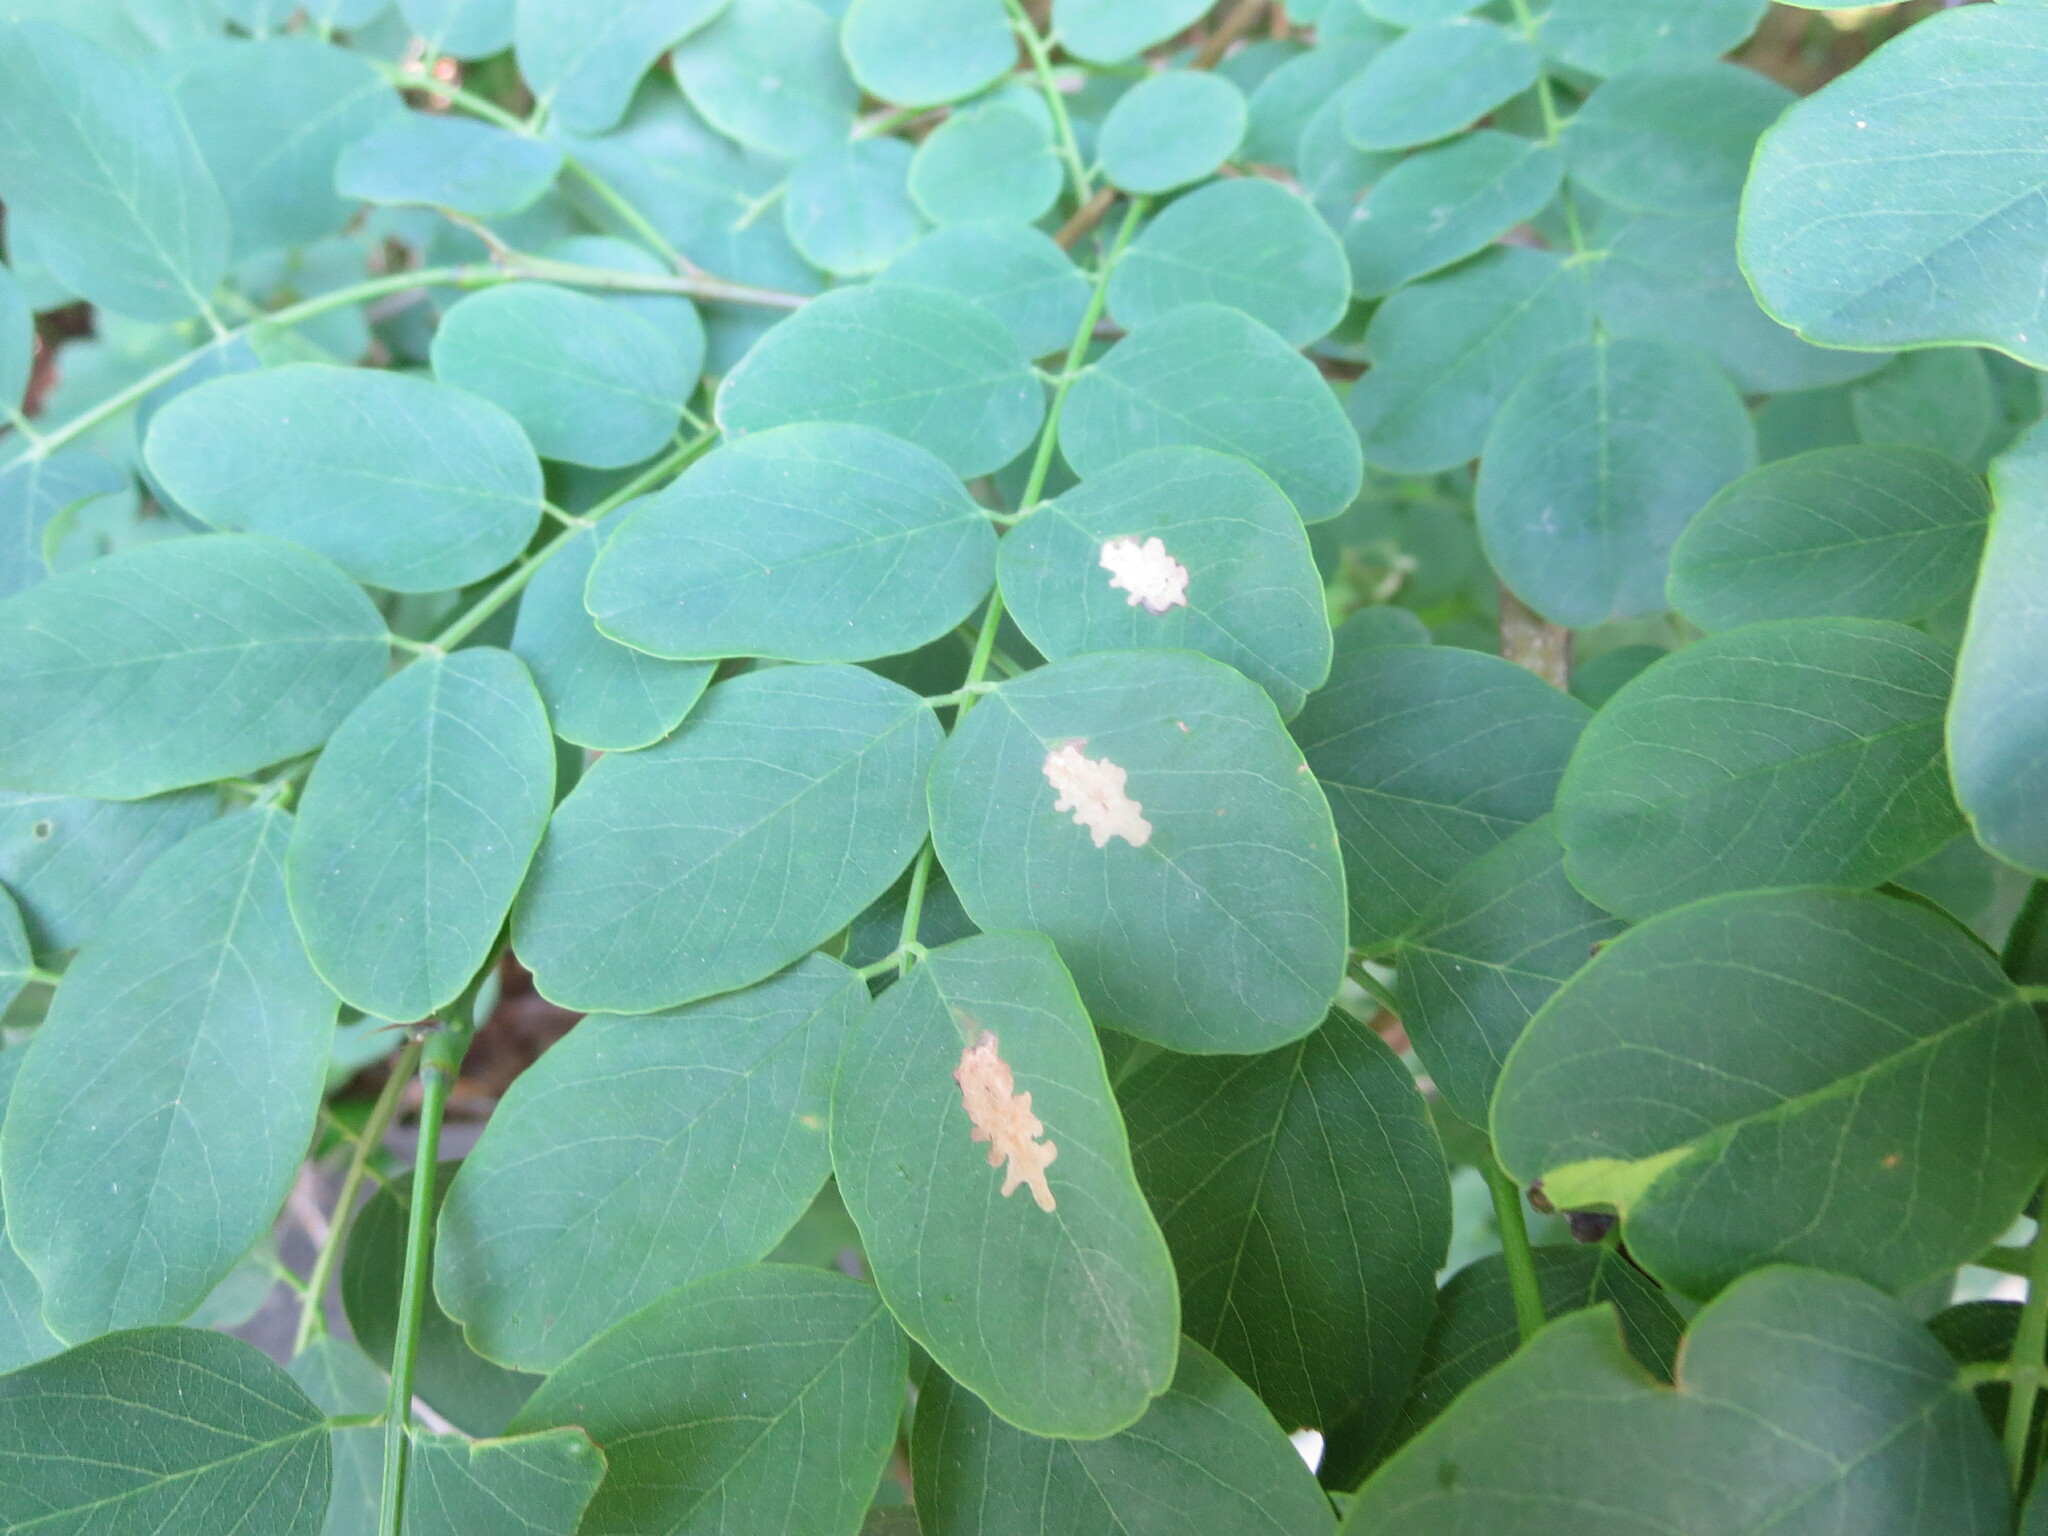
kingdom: Plantae
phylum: Tracheophyta
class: Magnoliopsida
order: Fabales
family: Fabaceae
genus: Robinia
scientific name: Robinia pseudoacacia
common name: Black locust
